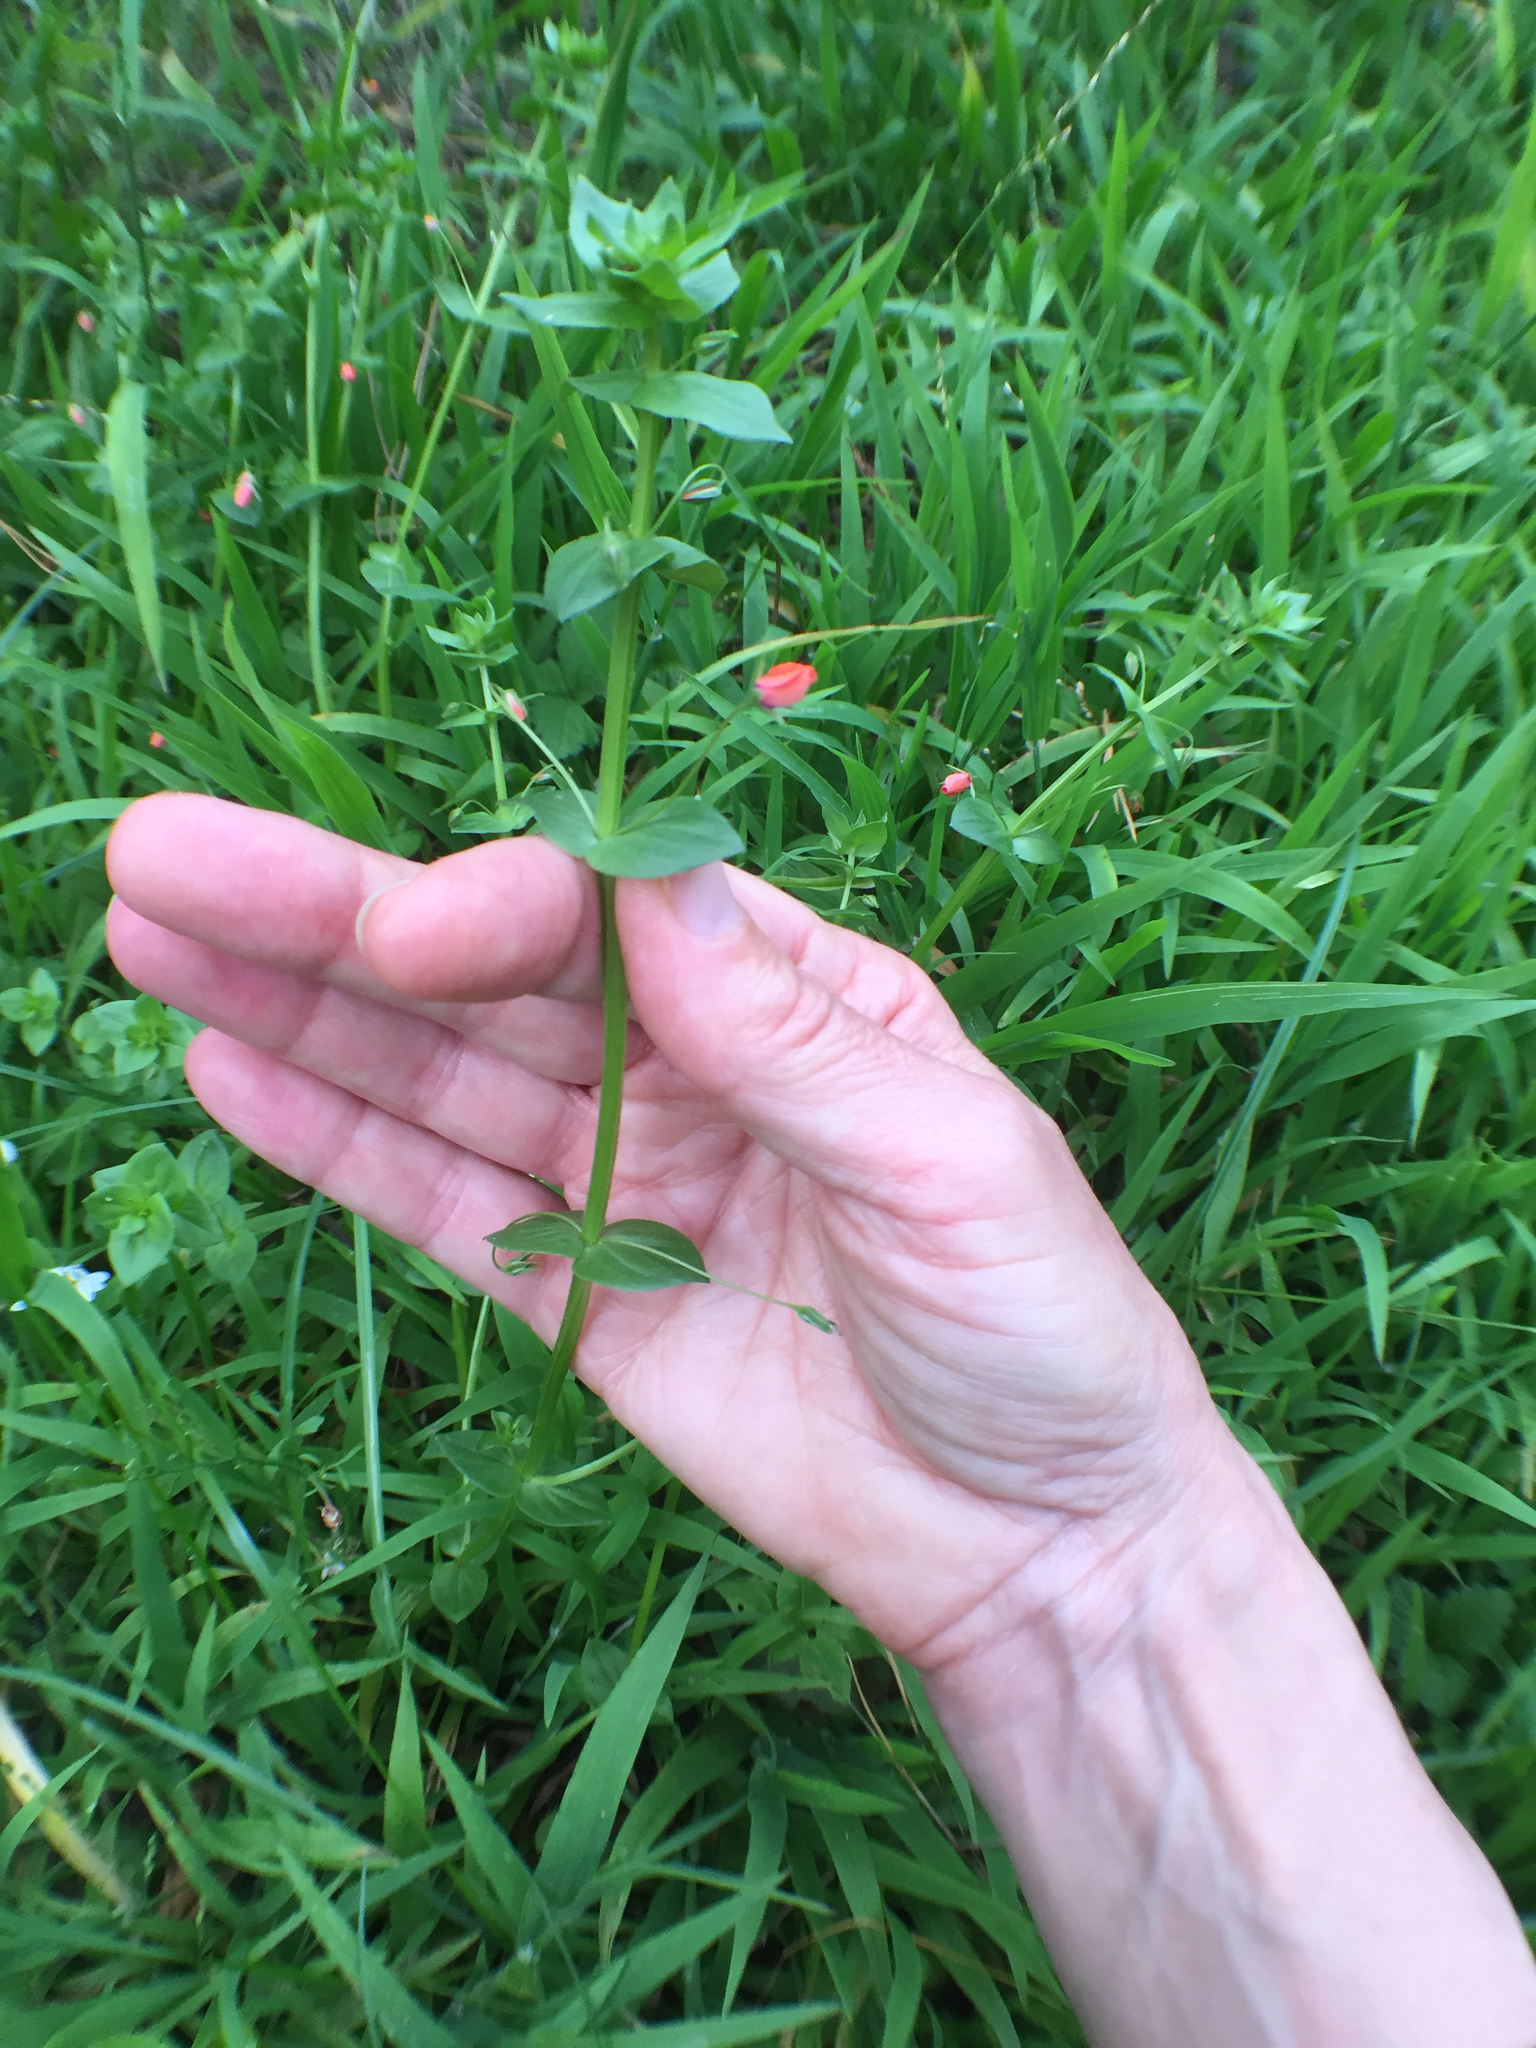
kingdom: Plantae
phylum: Tracheophyta
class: Magnoliopsida
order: Ericales
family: Primulaceae
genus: Lysimachia
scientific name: Lysimachia arvensis
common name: Scarlet pimpernel
